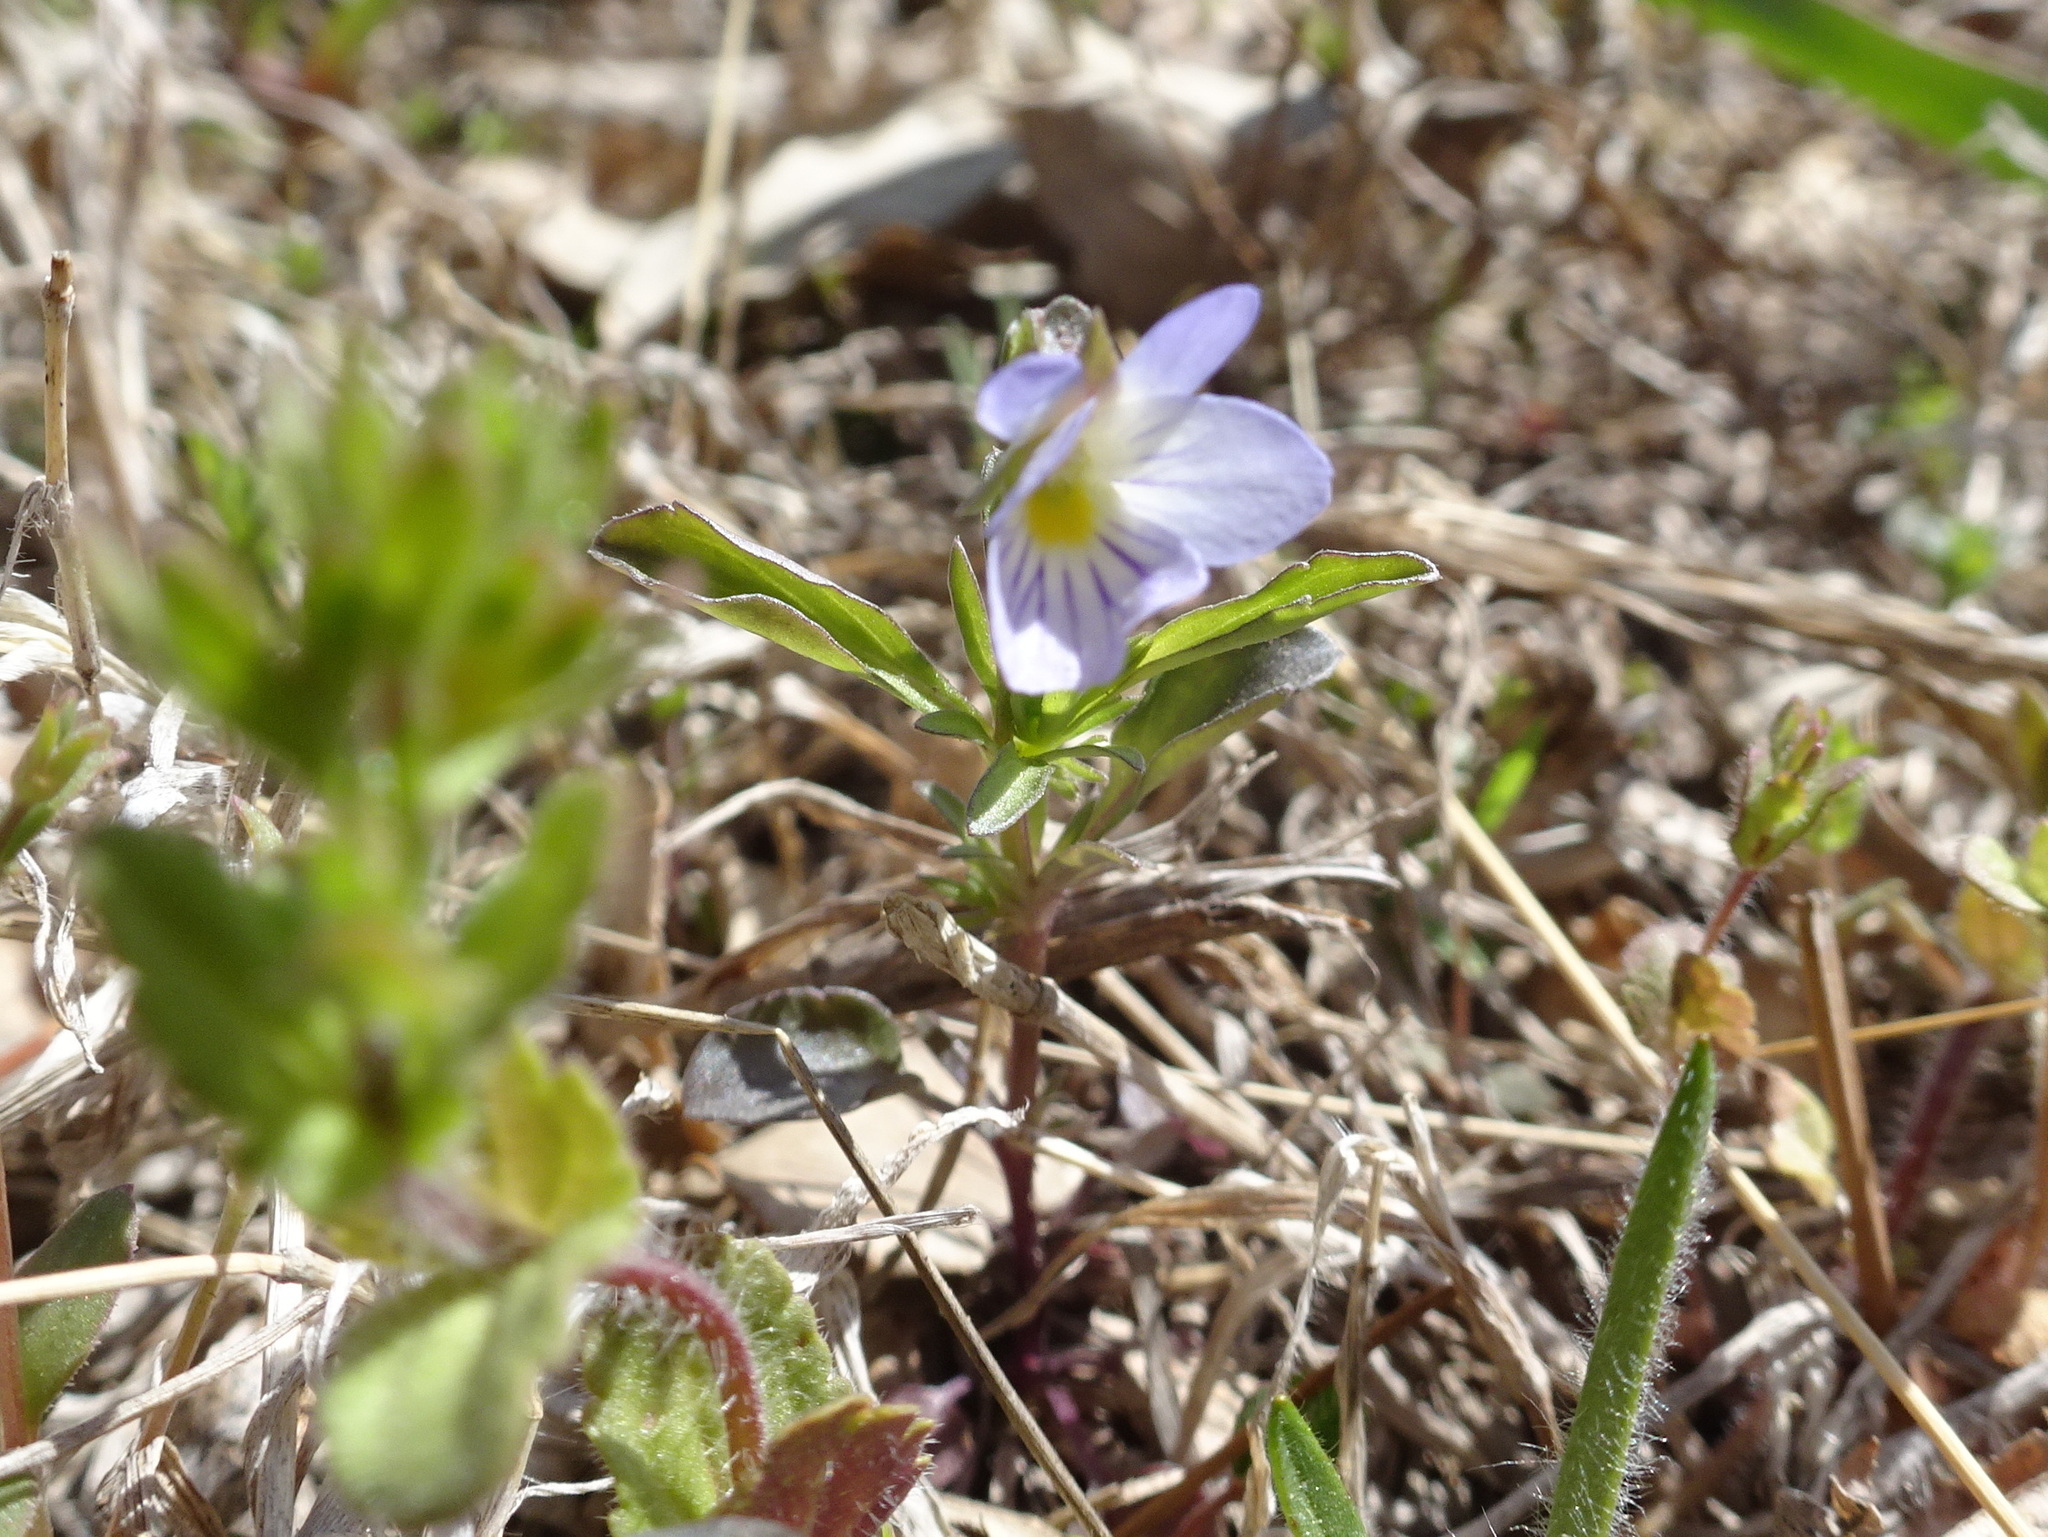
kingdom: Plantae
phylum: Tracheophyta
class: Magnoliopsida
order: Malpighiales
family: Violaceae
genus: Viola
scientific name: Viola rafinesquei
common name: American field pansy
